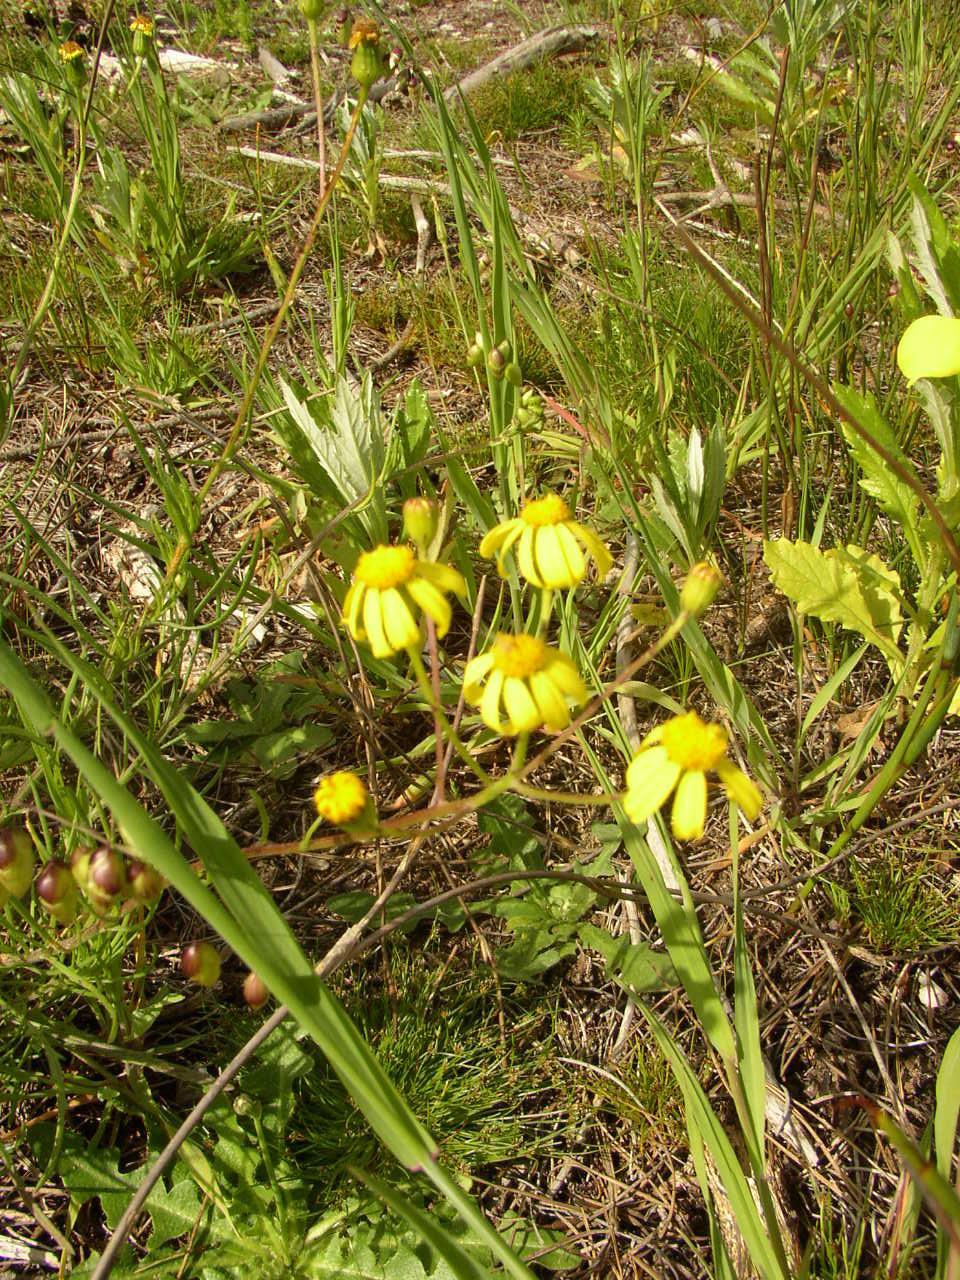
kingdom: Plantae
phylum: Tracheophyta
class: Magnoliopsida
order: Asterales
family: Asteraceae
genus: Senecio
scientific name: Senecio burchellii
